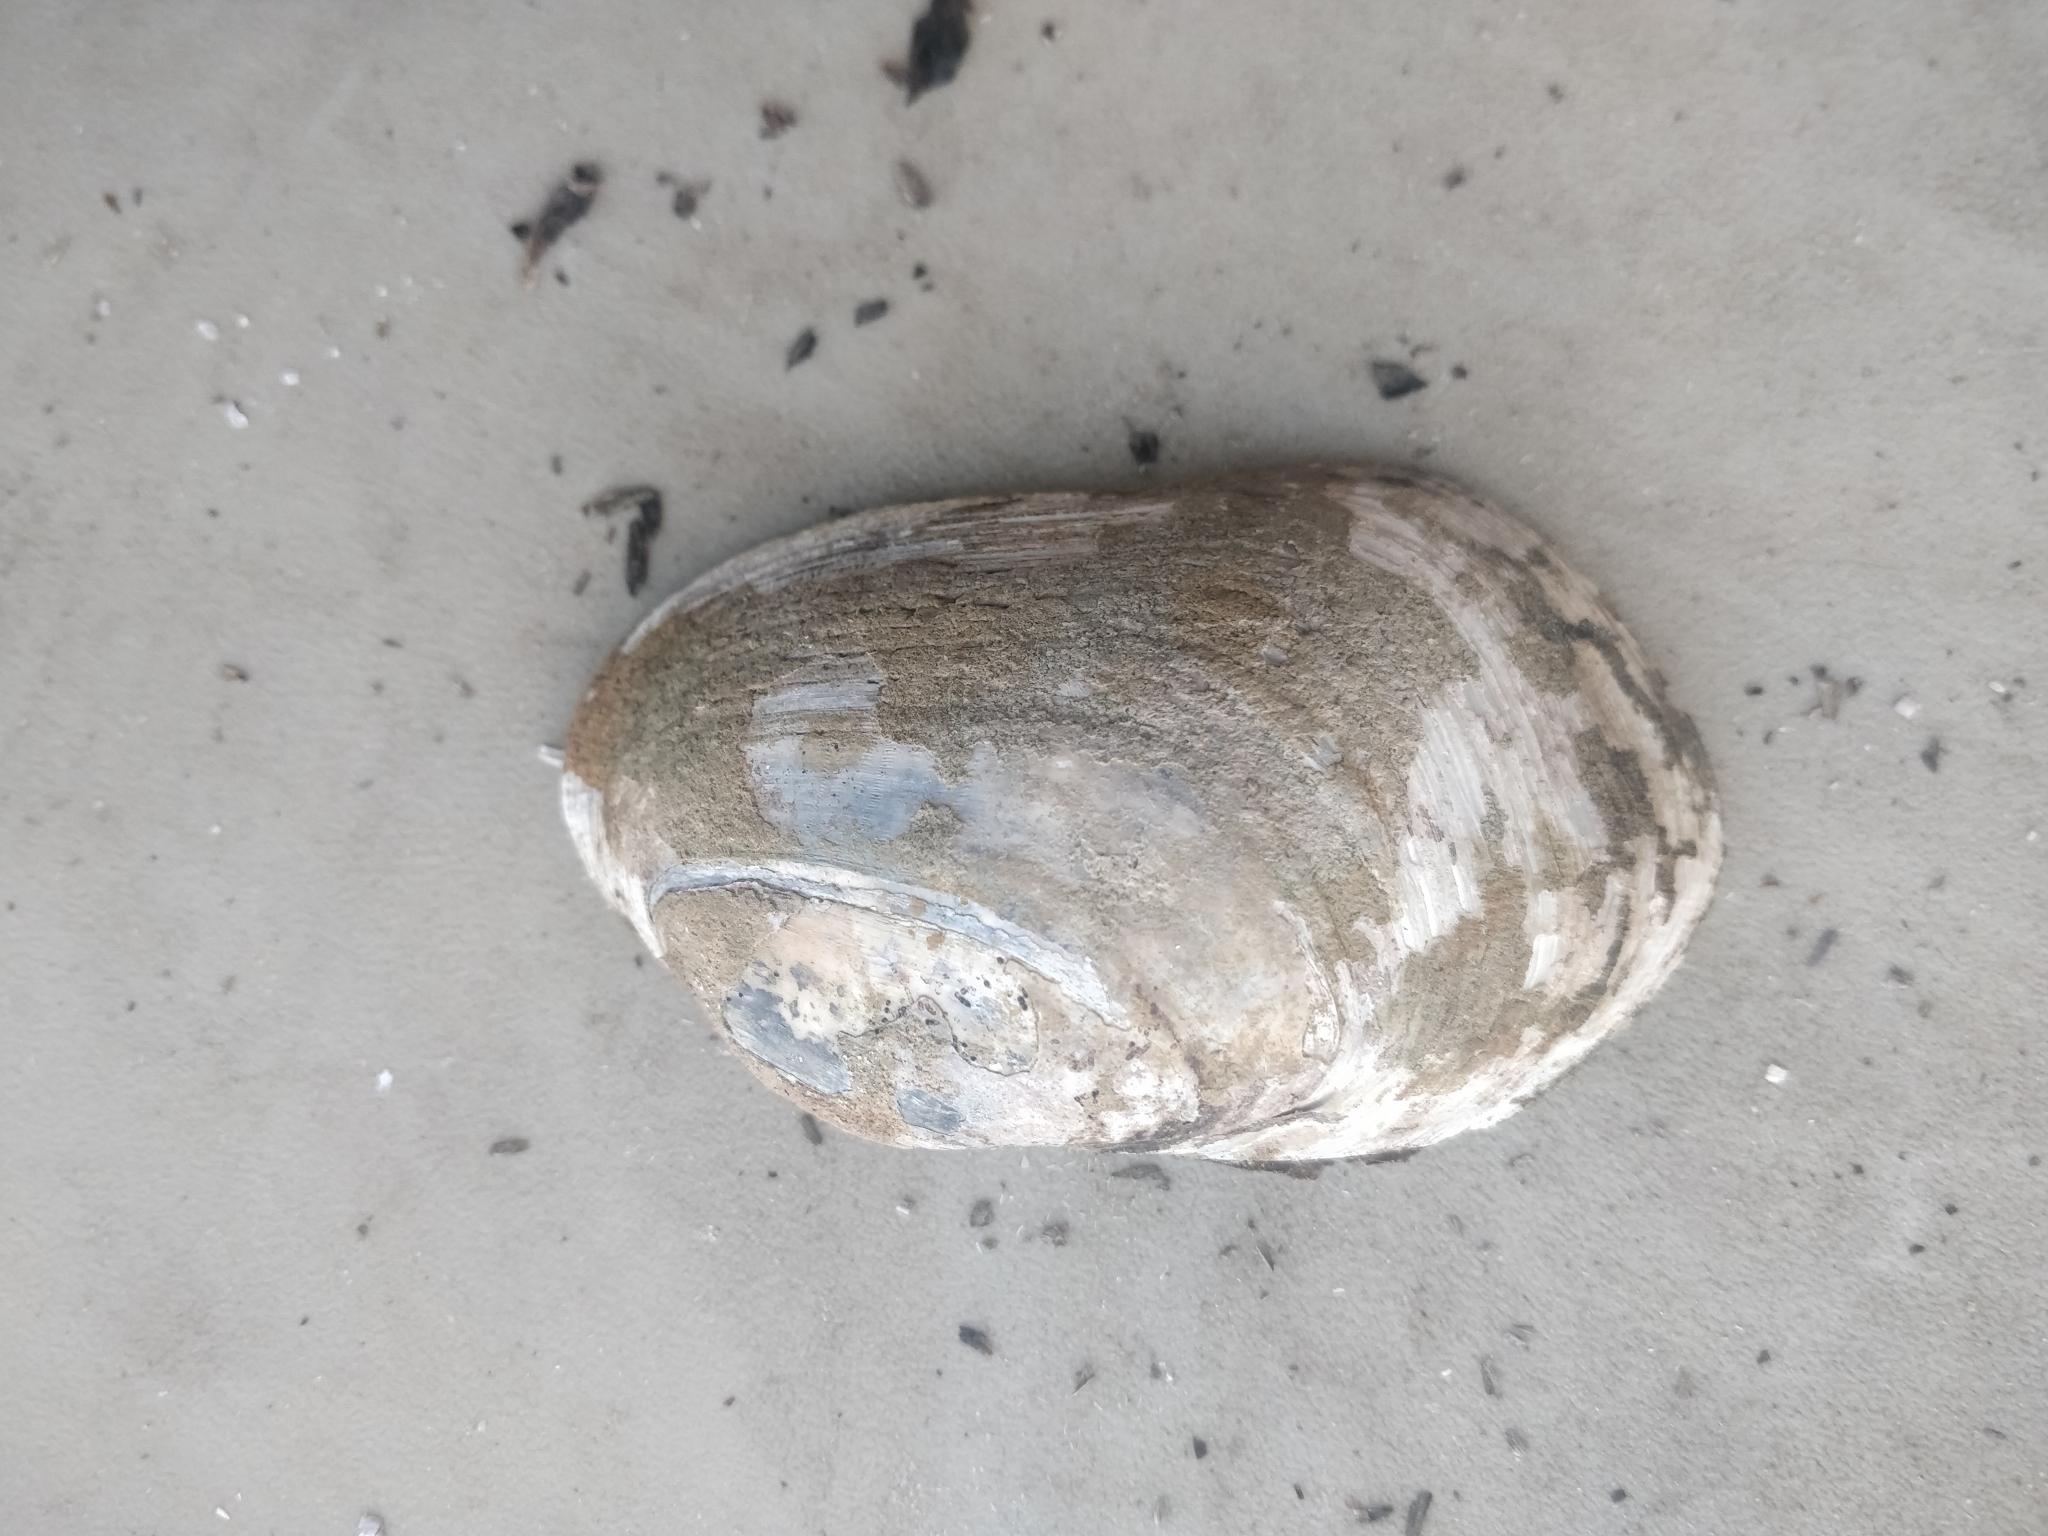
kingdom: Animalia
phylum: Mollusca
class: Bivalvia
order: Unionida
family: Unionidae
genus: Lampsilis
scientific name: Lampsilis siliquoidea
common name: Fatmucket
